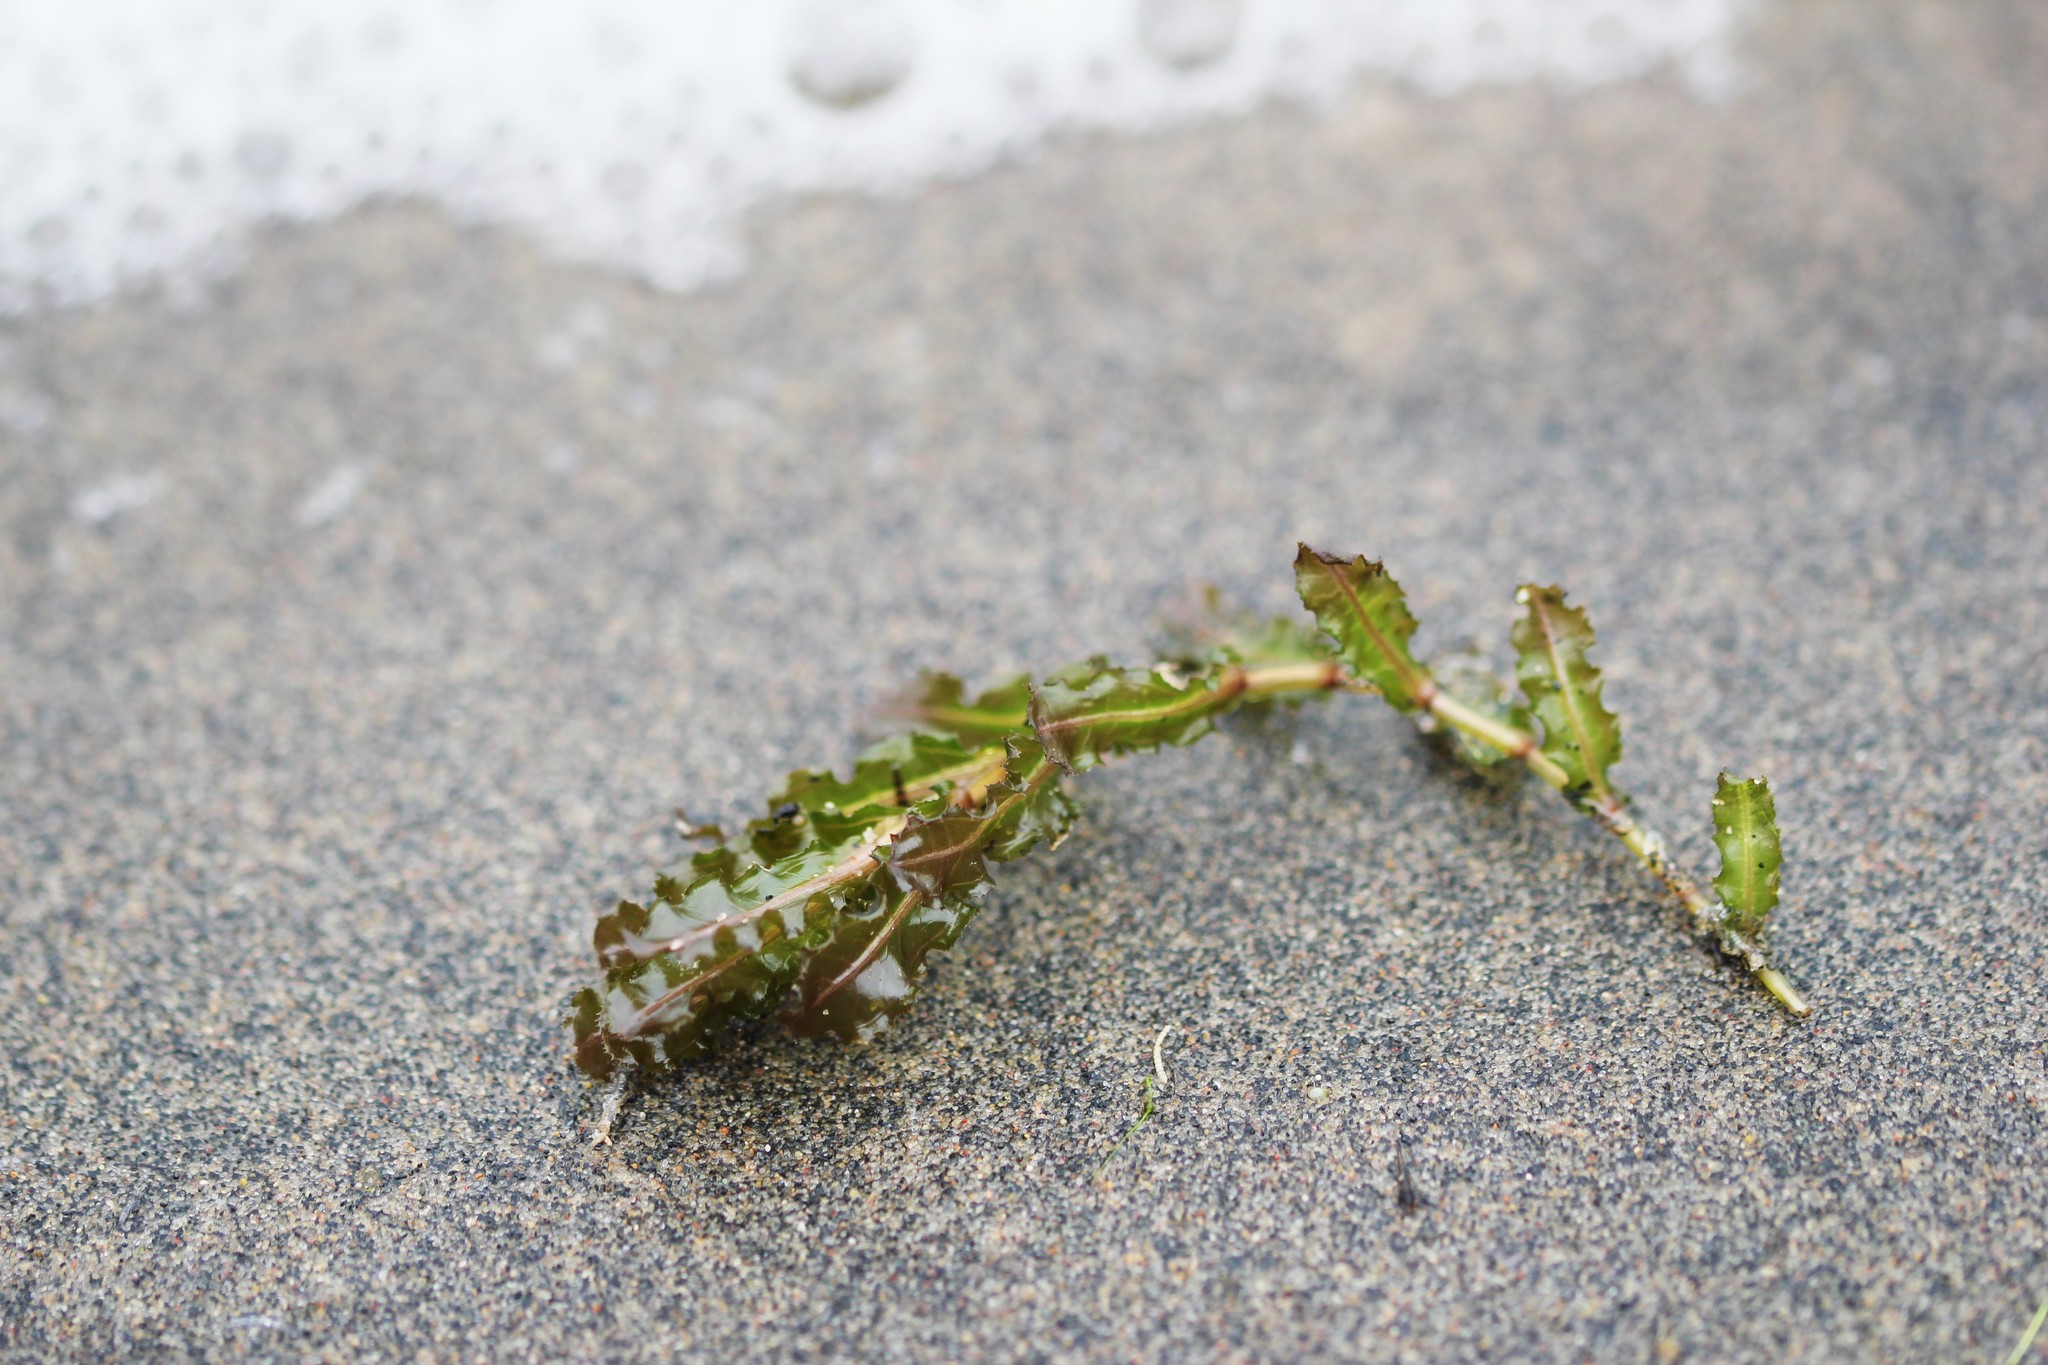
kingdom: Plantae
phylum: Tracheophyta
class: Liliopsida
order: Alismatales
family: Potamogetonaceae
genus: Potamogeton
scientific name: Potamogeton crispus
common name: Curled pondweed
